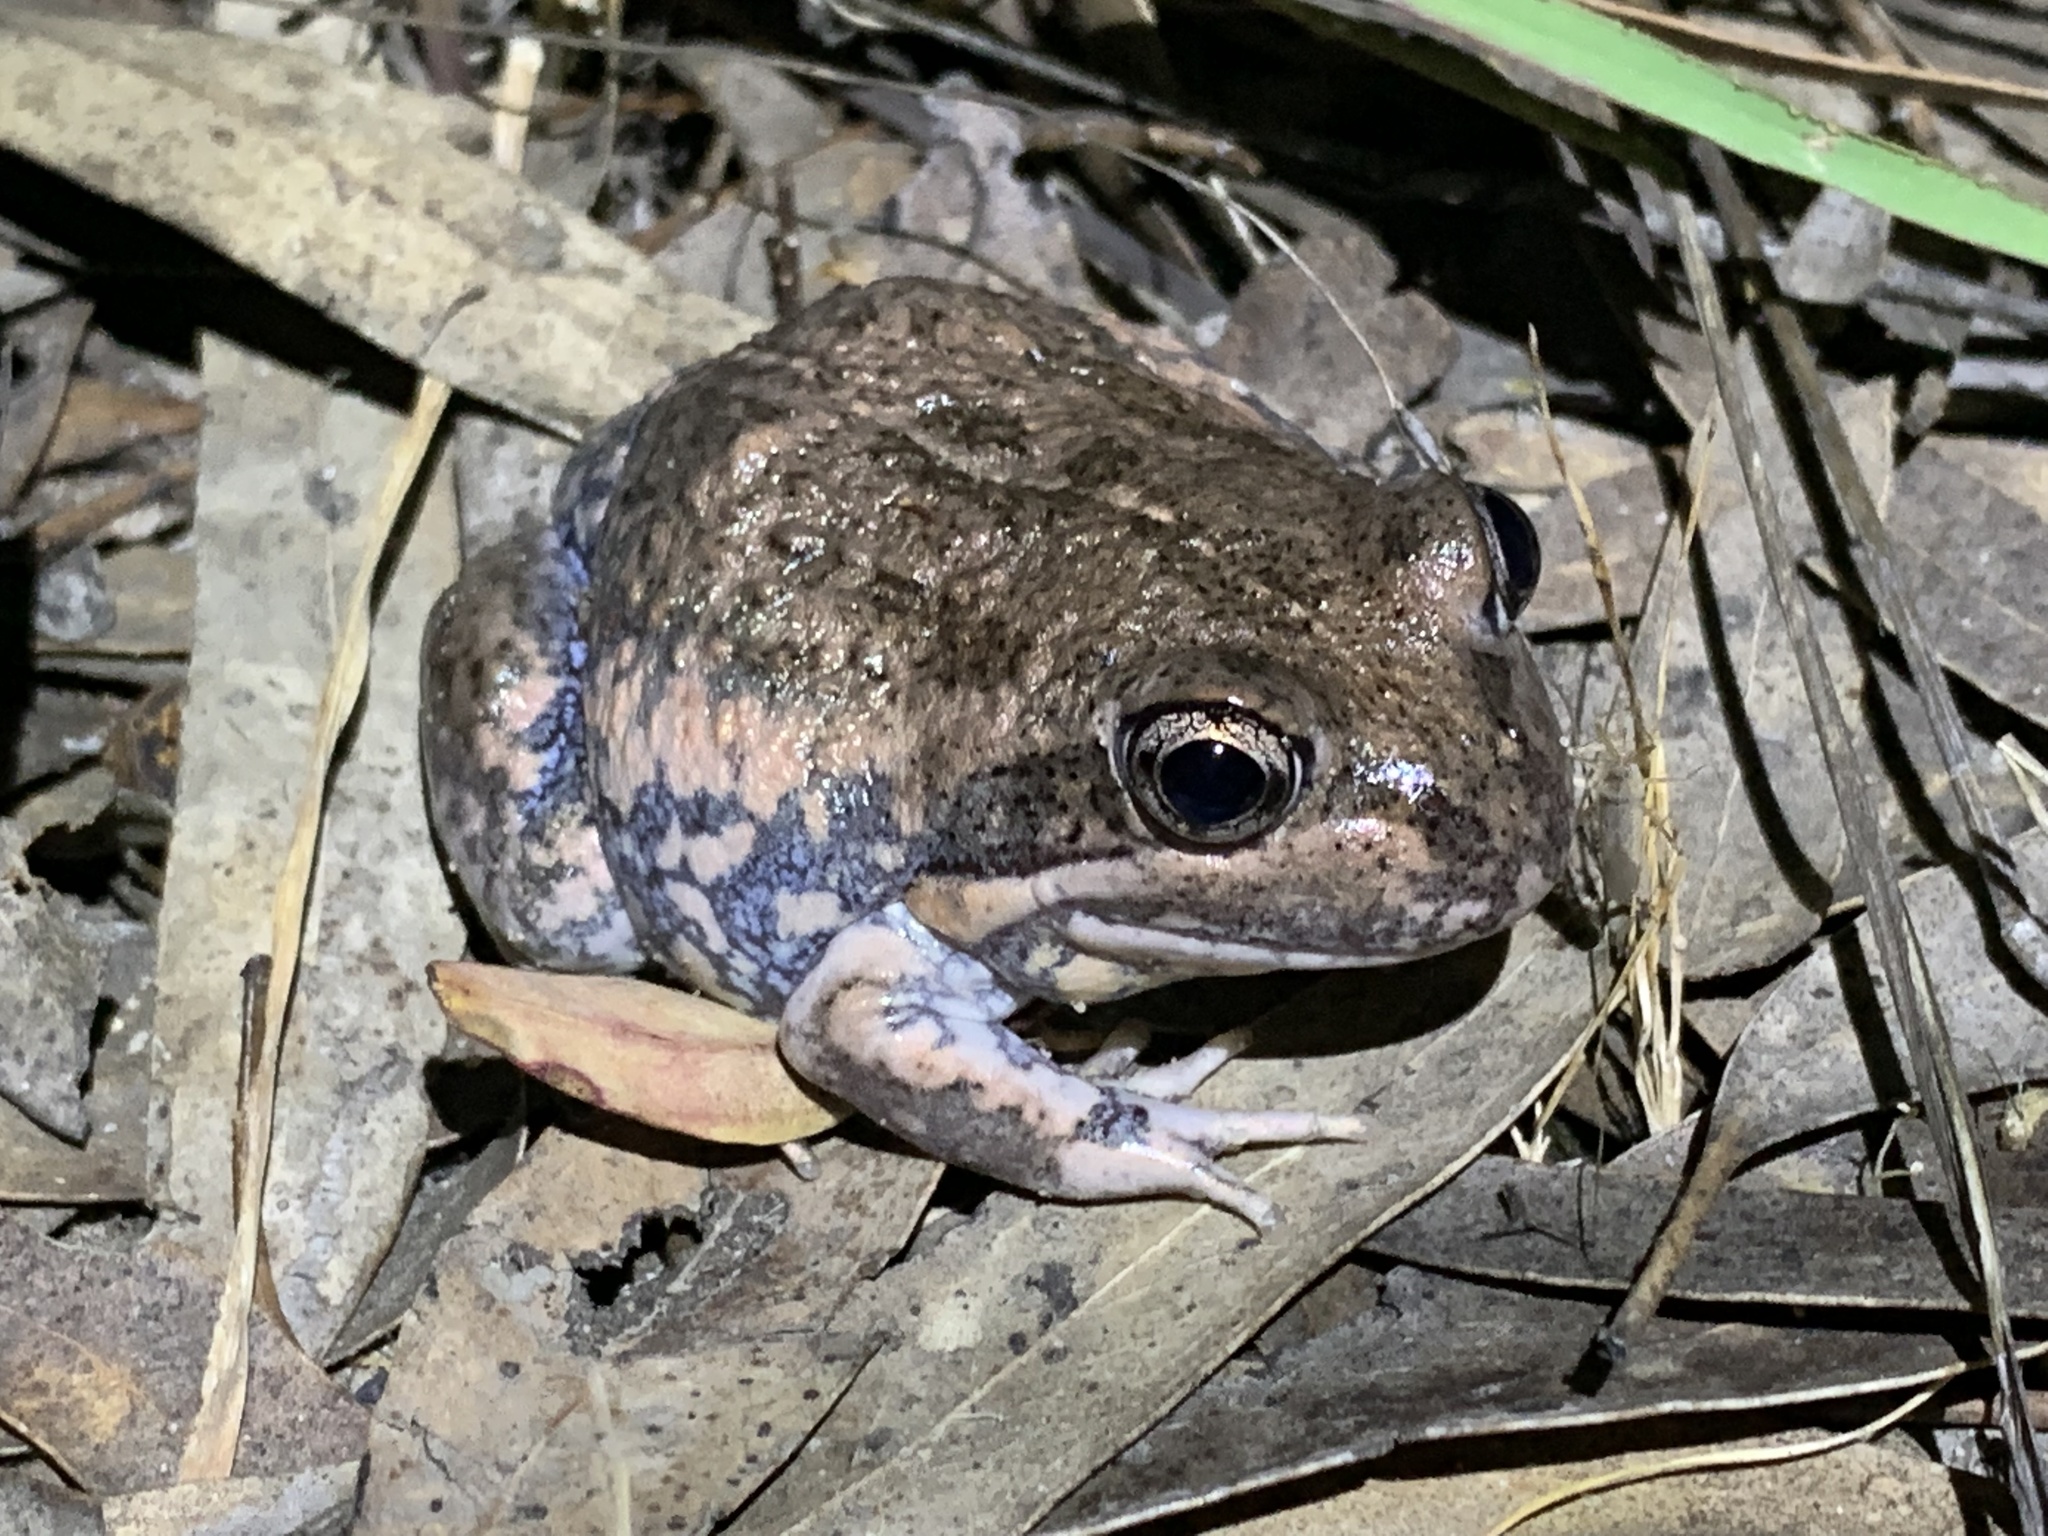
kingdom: Animalia
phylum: Chordata
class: Amphibia
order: Anura
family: Limnodynastidae
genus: Limnodynastes
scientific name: Limnodynastes dumerilii
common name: Banjo frog
